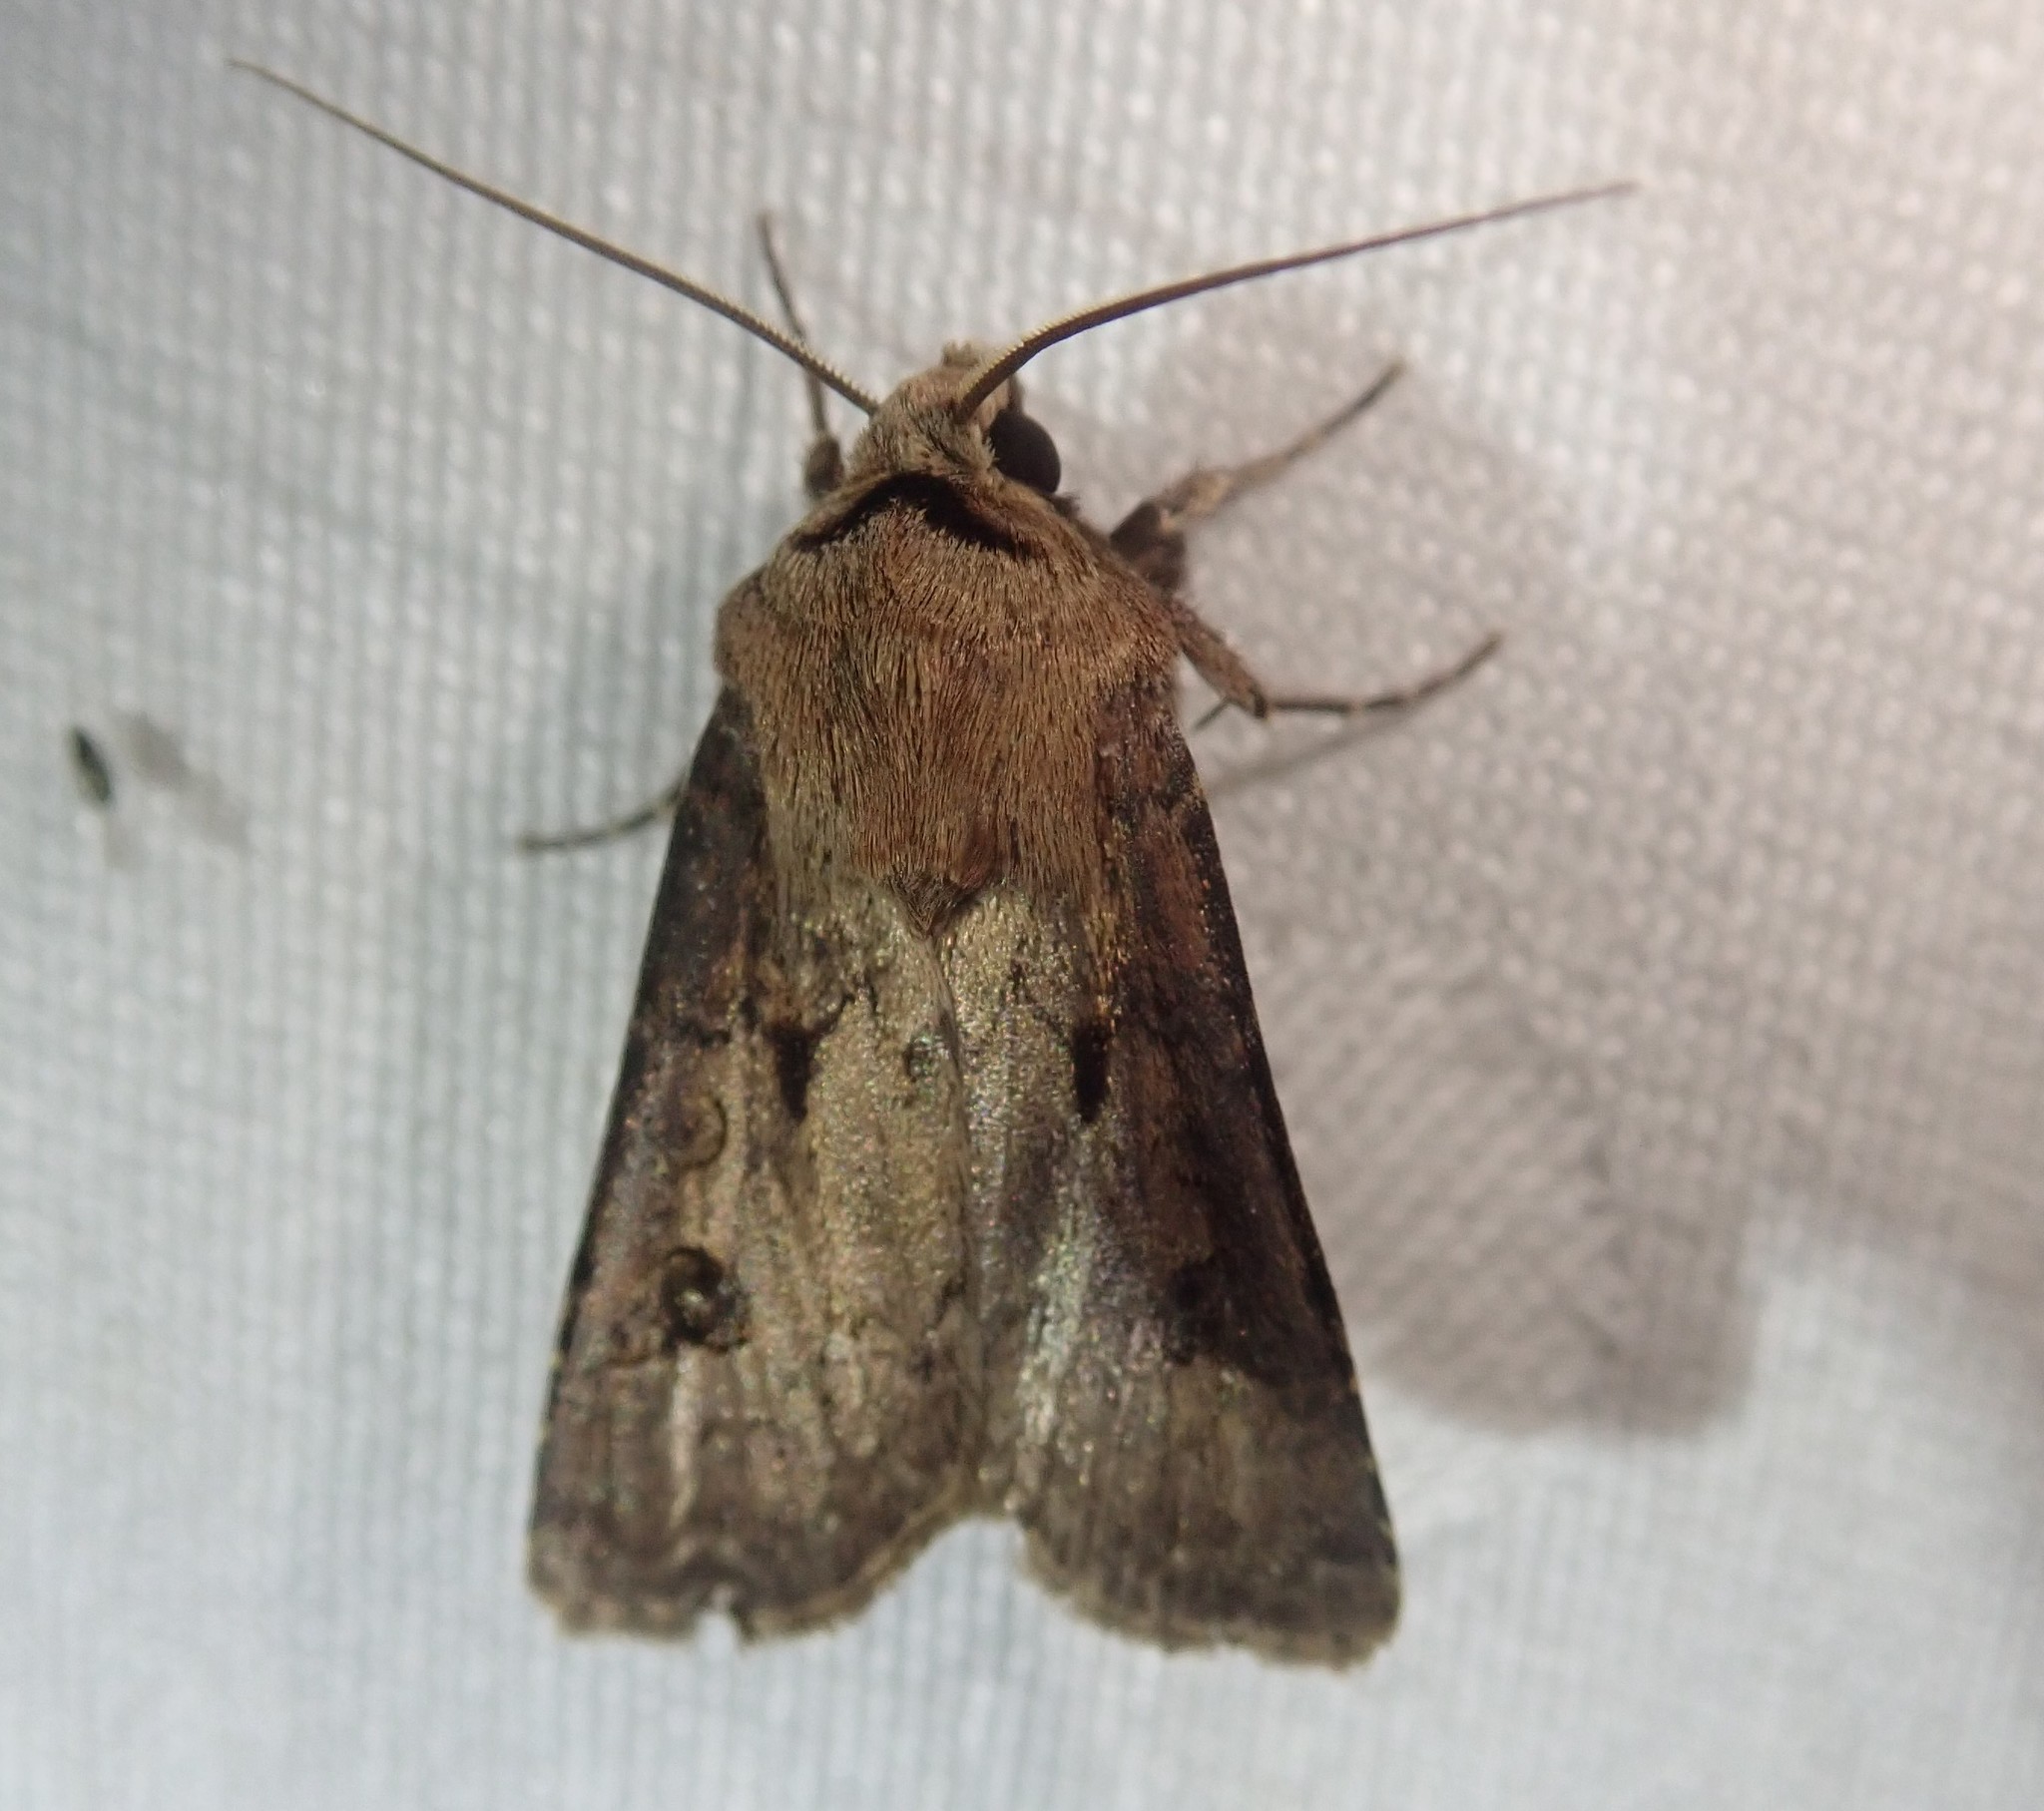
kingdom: Animalia
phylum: Arthropoda
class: Insecta
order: Lepidoptera
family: Noctuidae
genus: Agrotis
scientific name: Agrotis exclamationis
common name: Heart and dart
